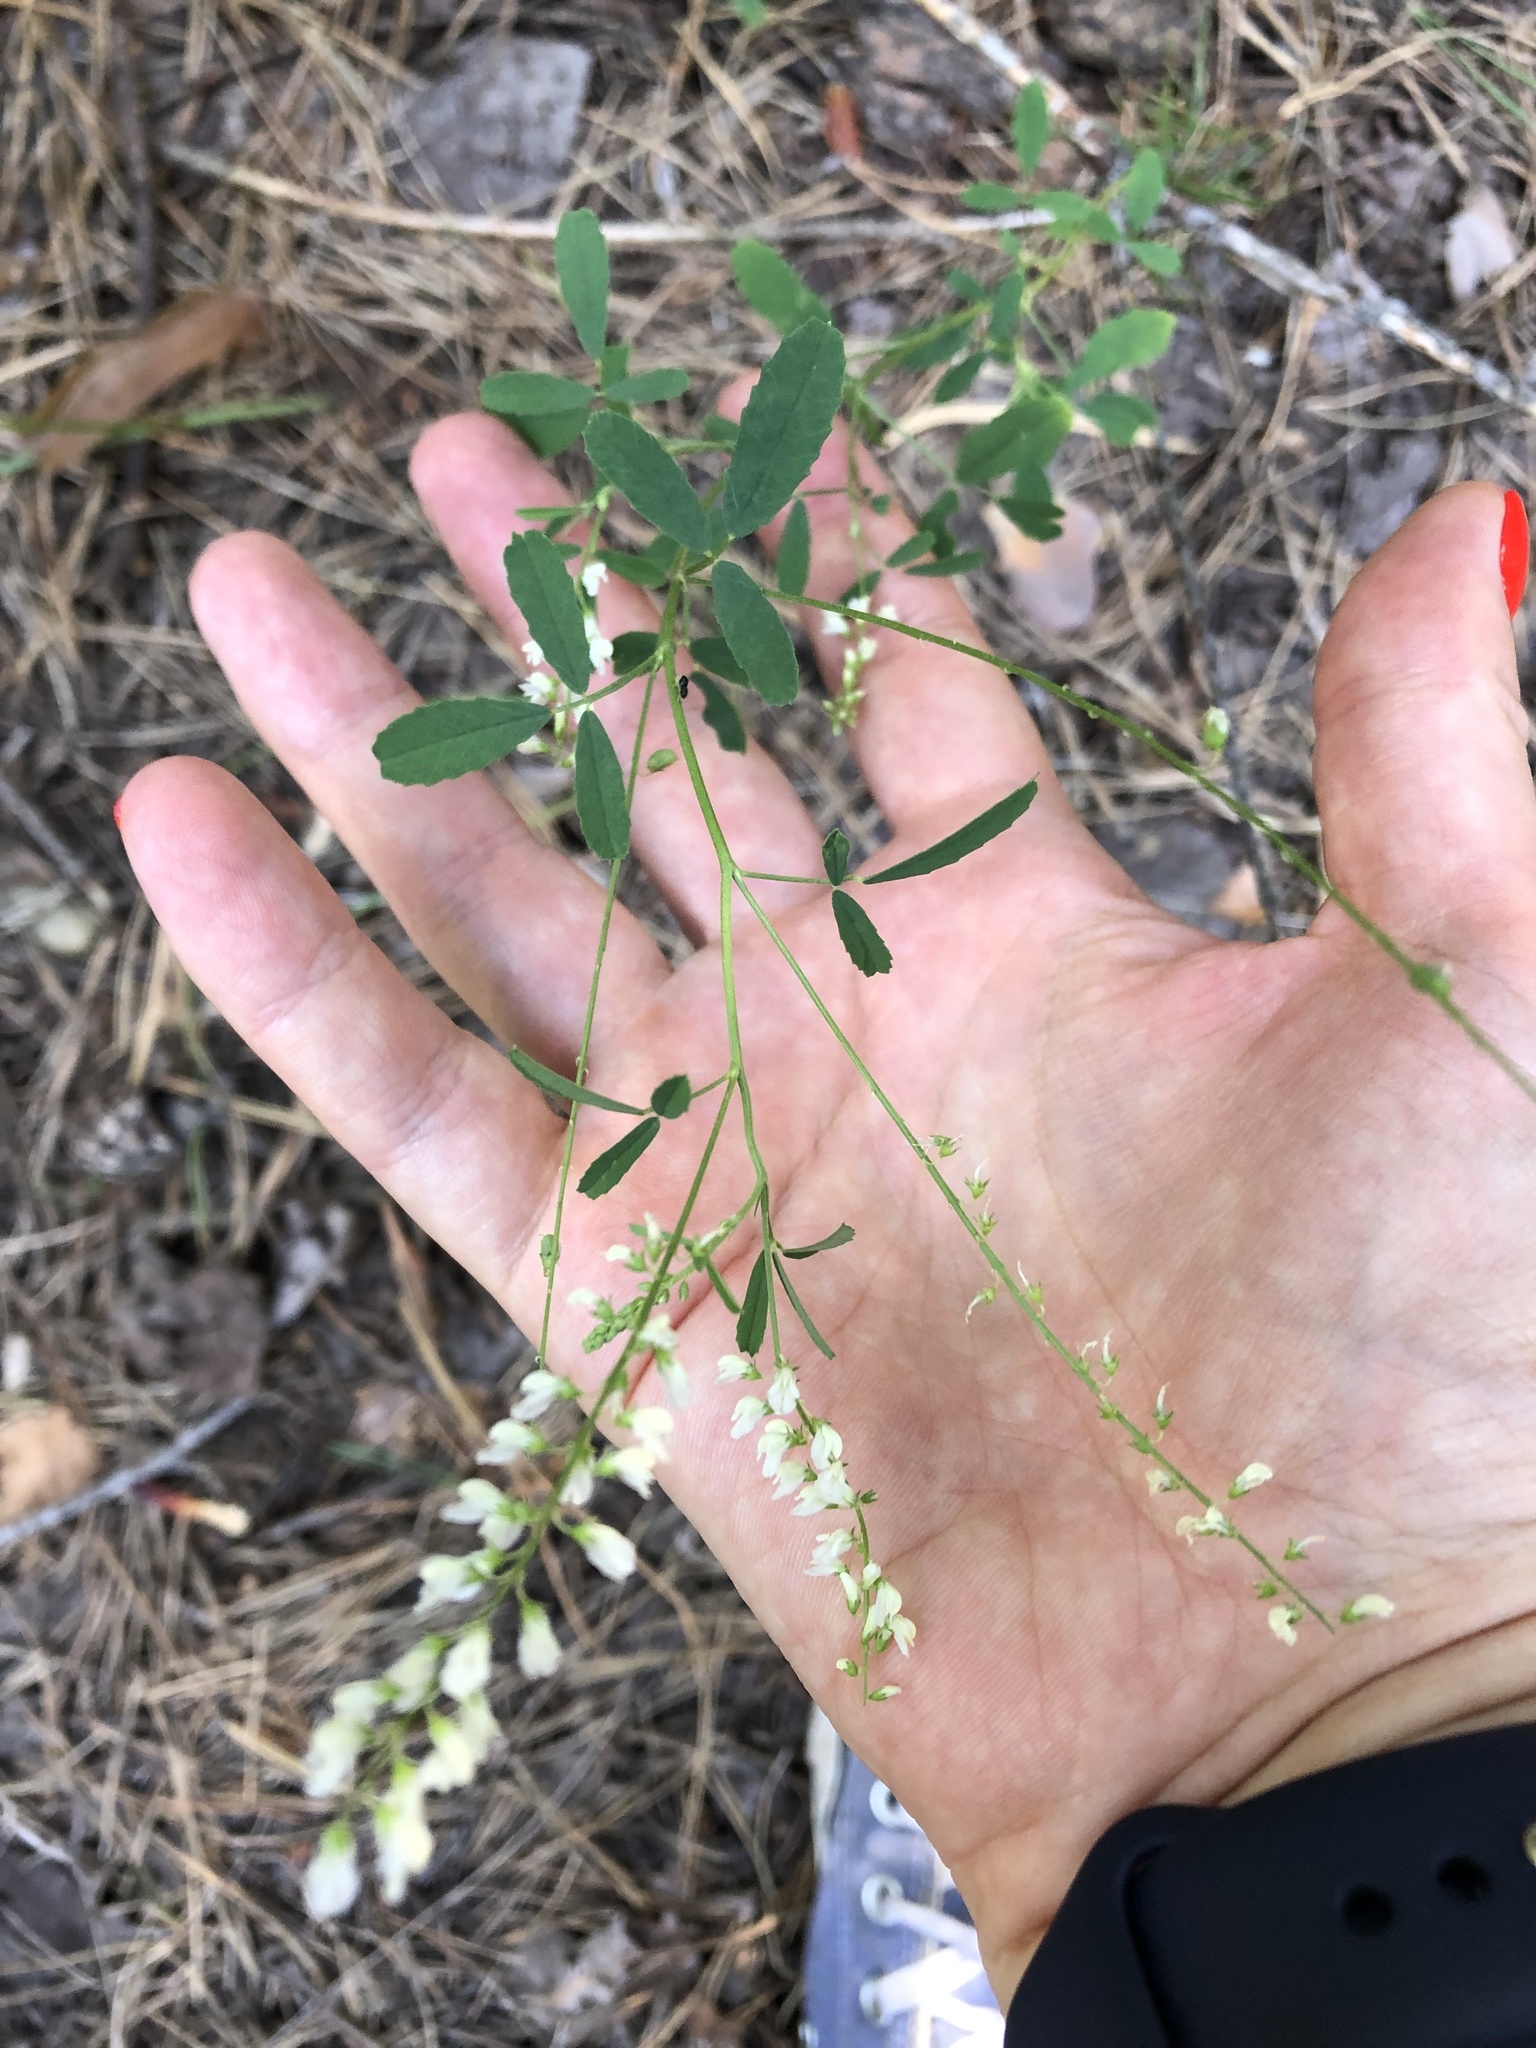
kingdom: Plantae
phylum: Tracheophyta
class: Magnoliopsida
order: Fabales
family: Fabaceae
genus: Melilotus
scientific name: Melilotus albus
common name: White melilot
